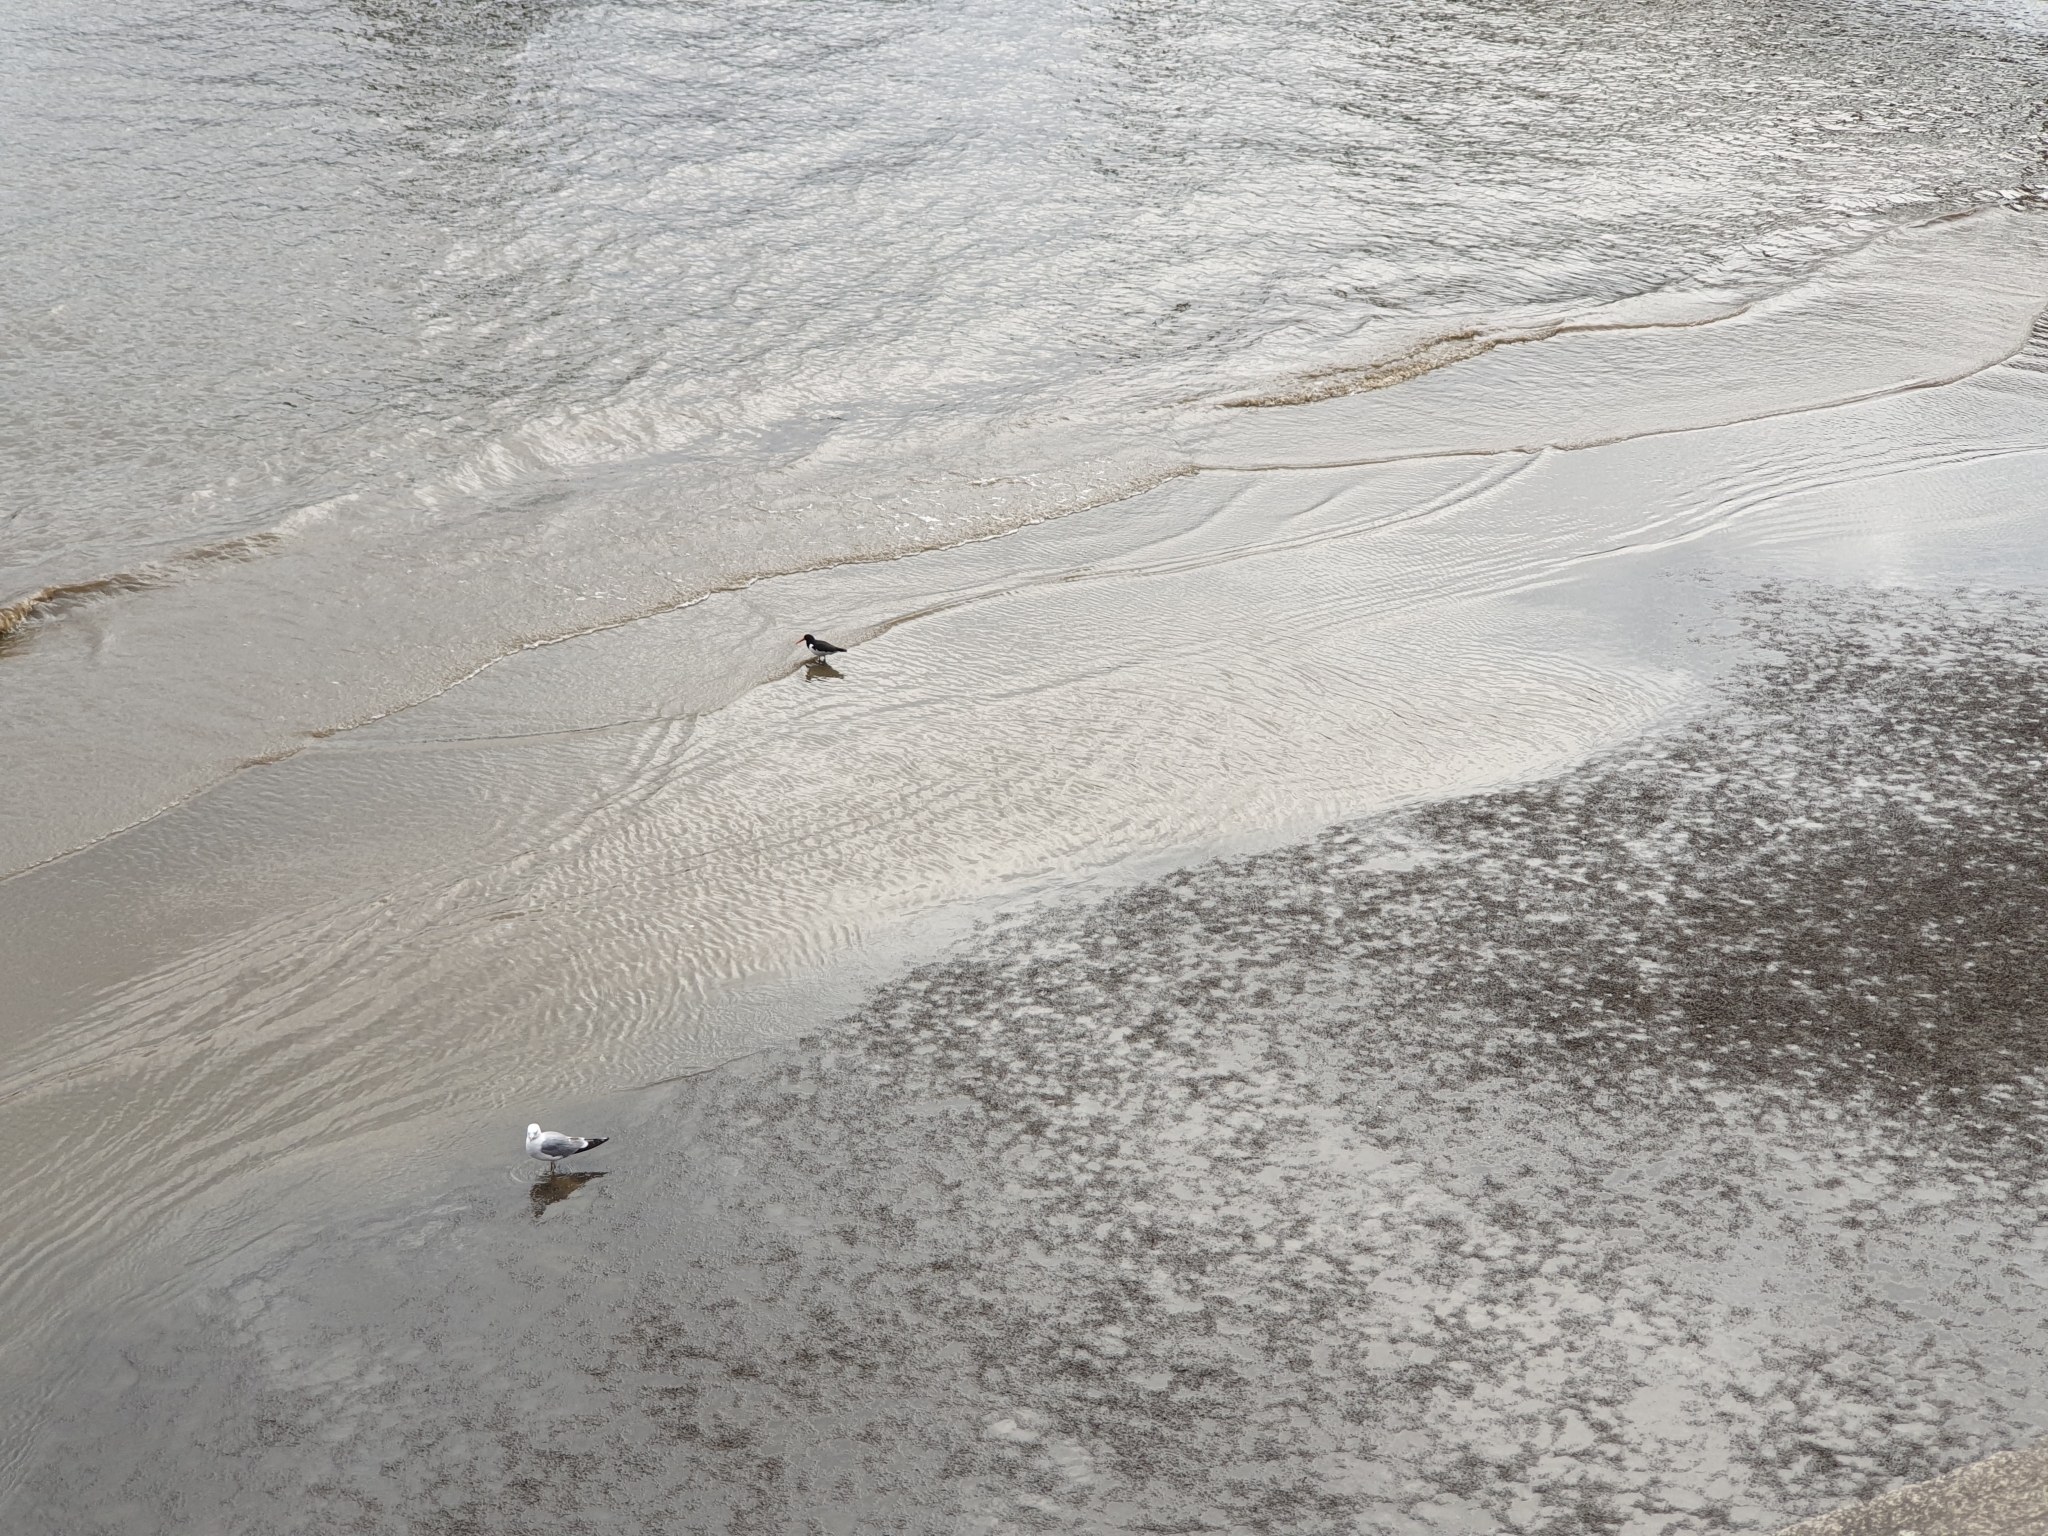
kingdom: Animalia
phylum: Chordata
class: Aves
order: Charadriiformes
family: Laridae
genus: Larus
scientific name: Larus canus
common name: Mew gull
